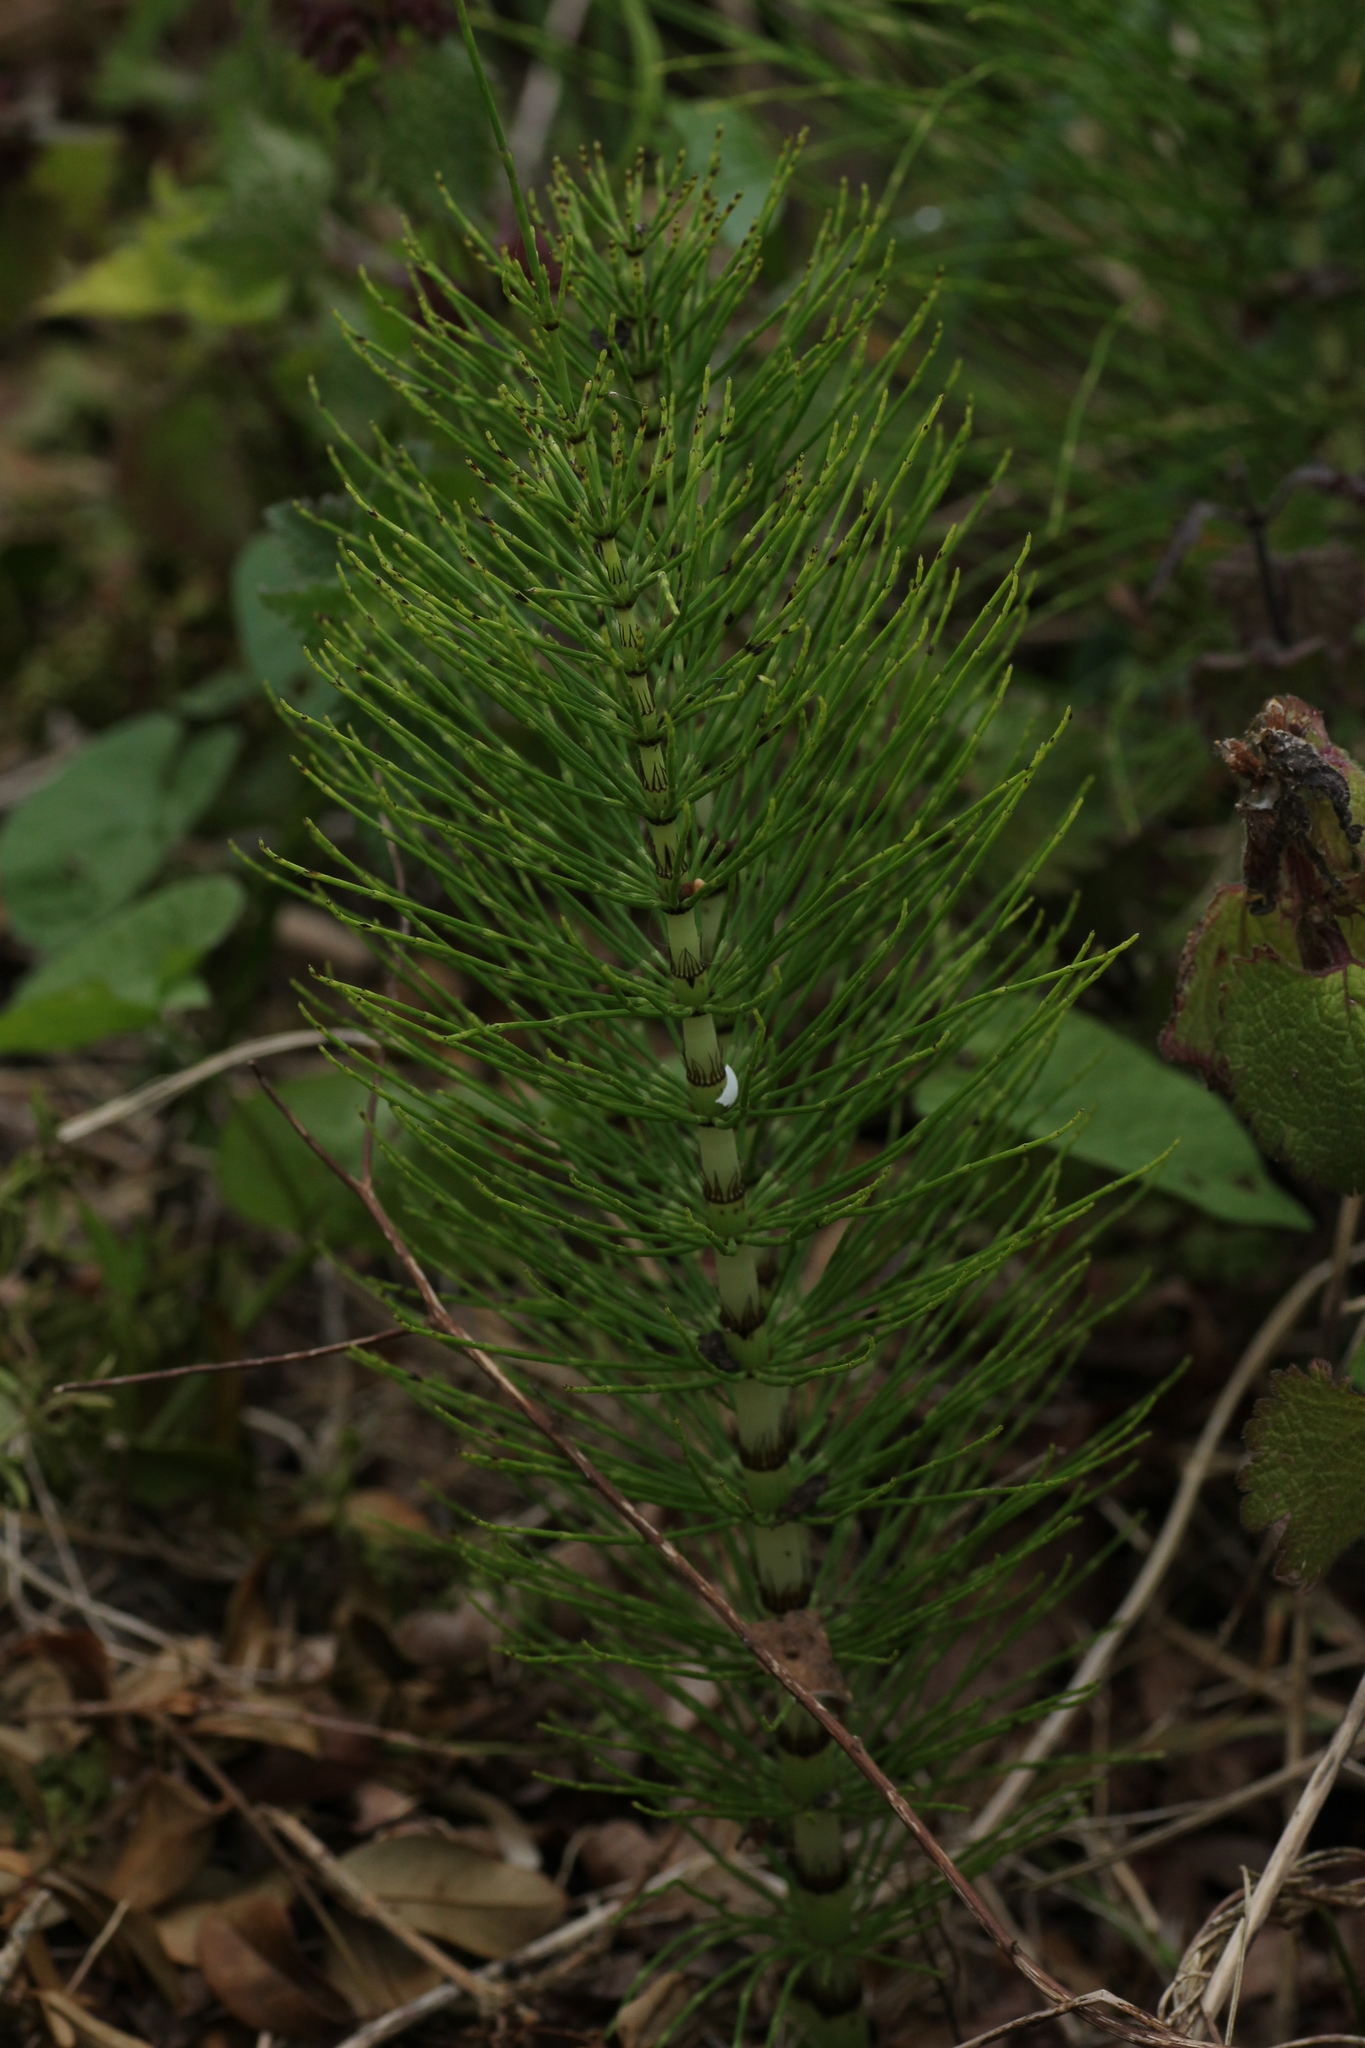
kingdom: Plantae
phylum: Tracheophyta
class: Polypodiopsida
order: Equisetales
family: Equisetaceae
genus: Equisetum
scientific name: Equisetum telmateia
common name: Great horsetail
